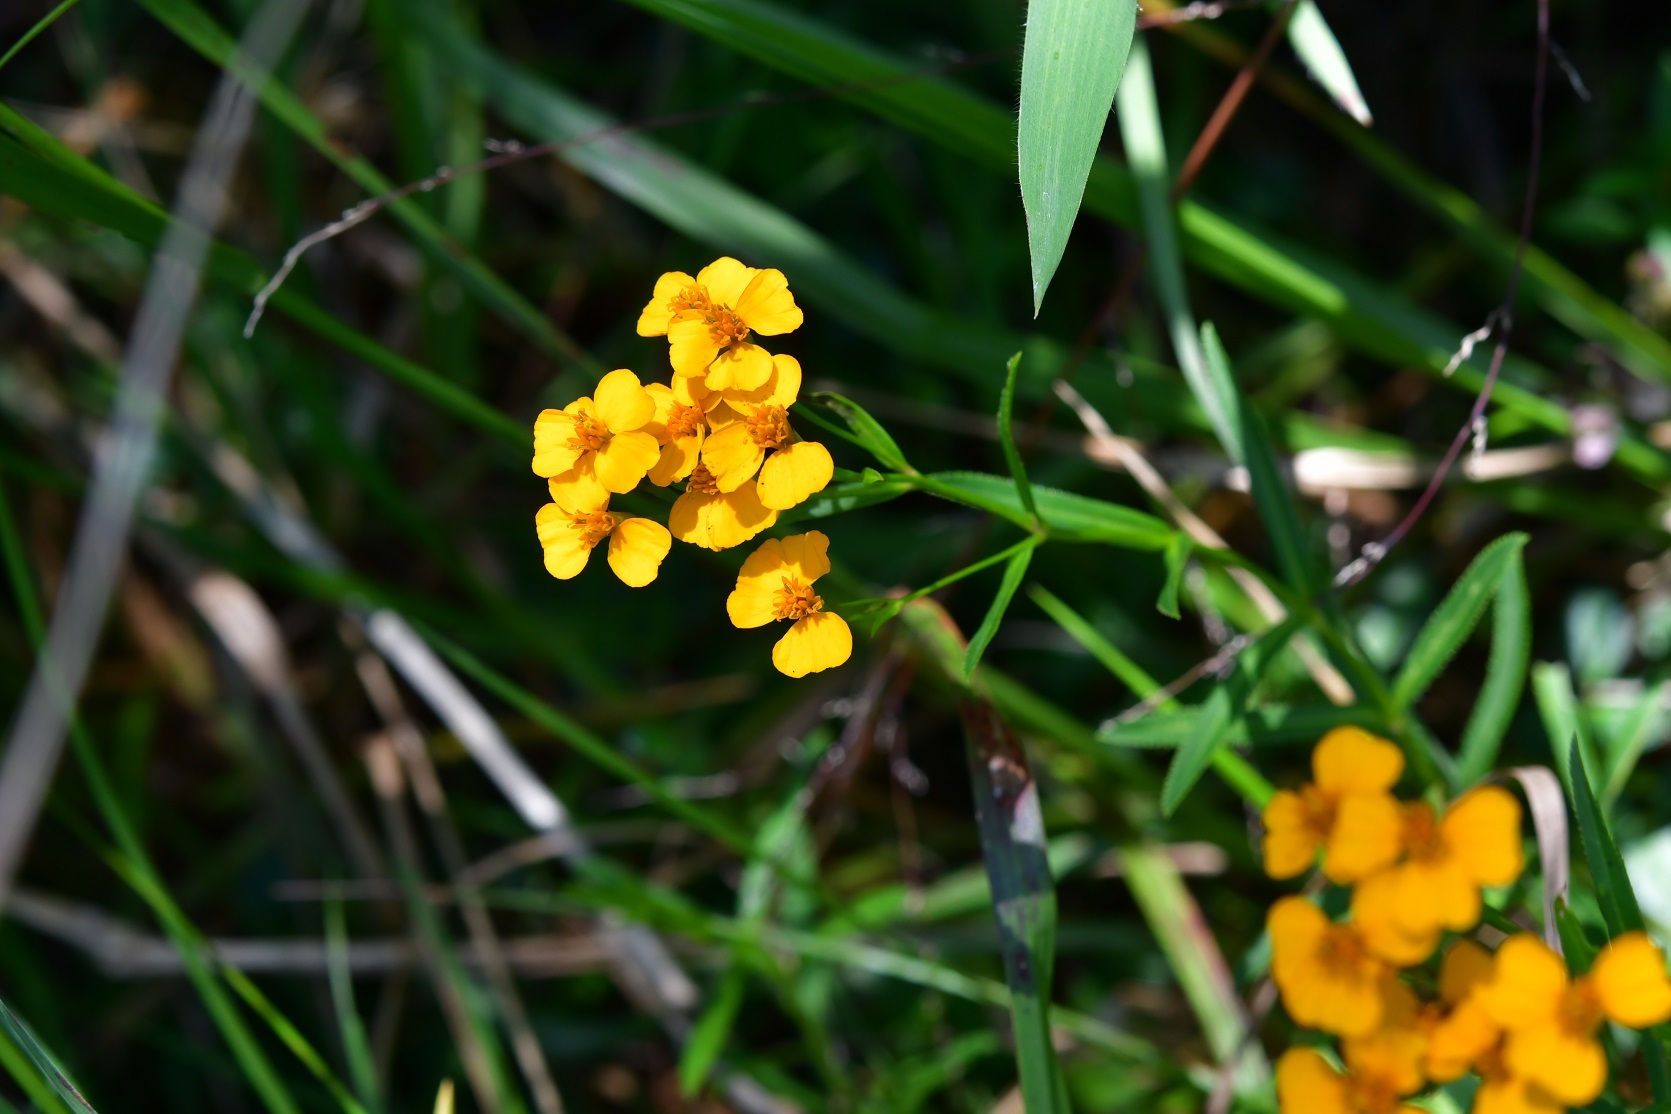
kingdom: Plantae
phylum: Tracheophyta
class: Magnoliopsida
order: Asterales
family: Asteraceae
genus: Tagetes
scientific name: Tagetes lucida
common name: Sweetscented marigold
